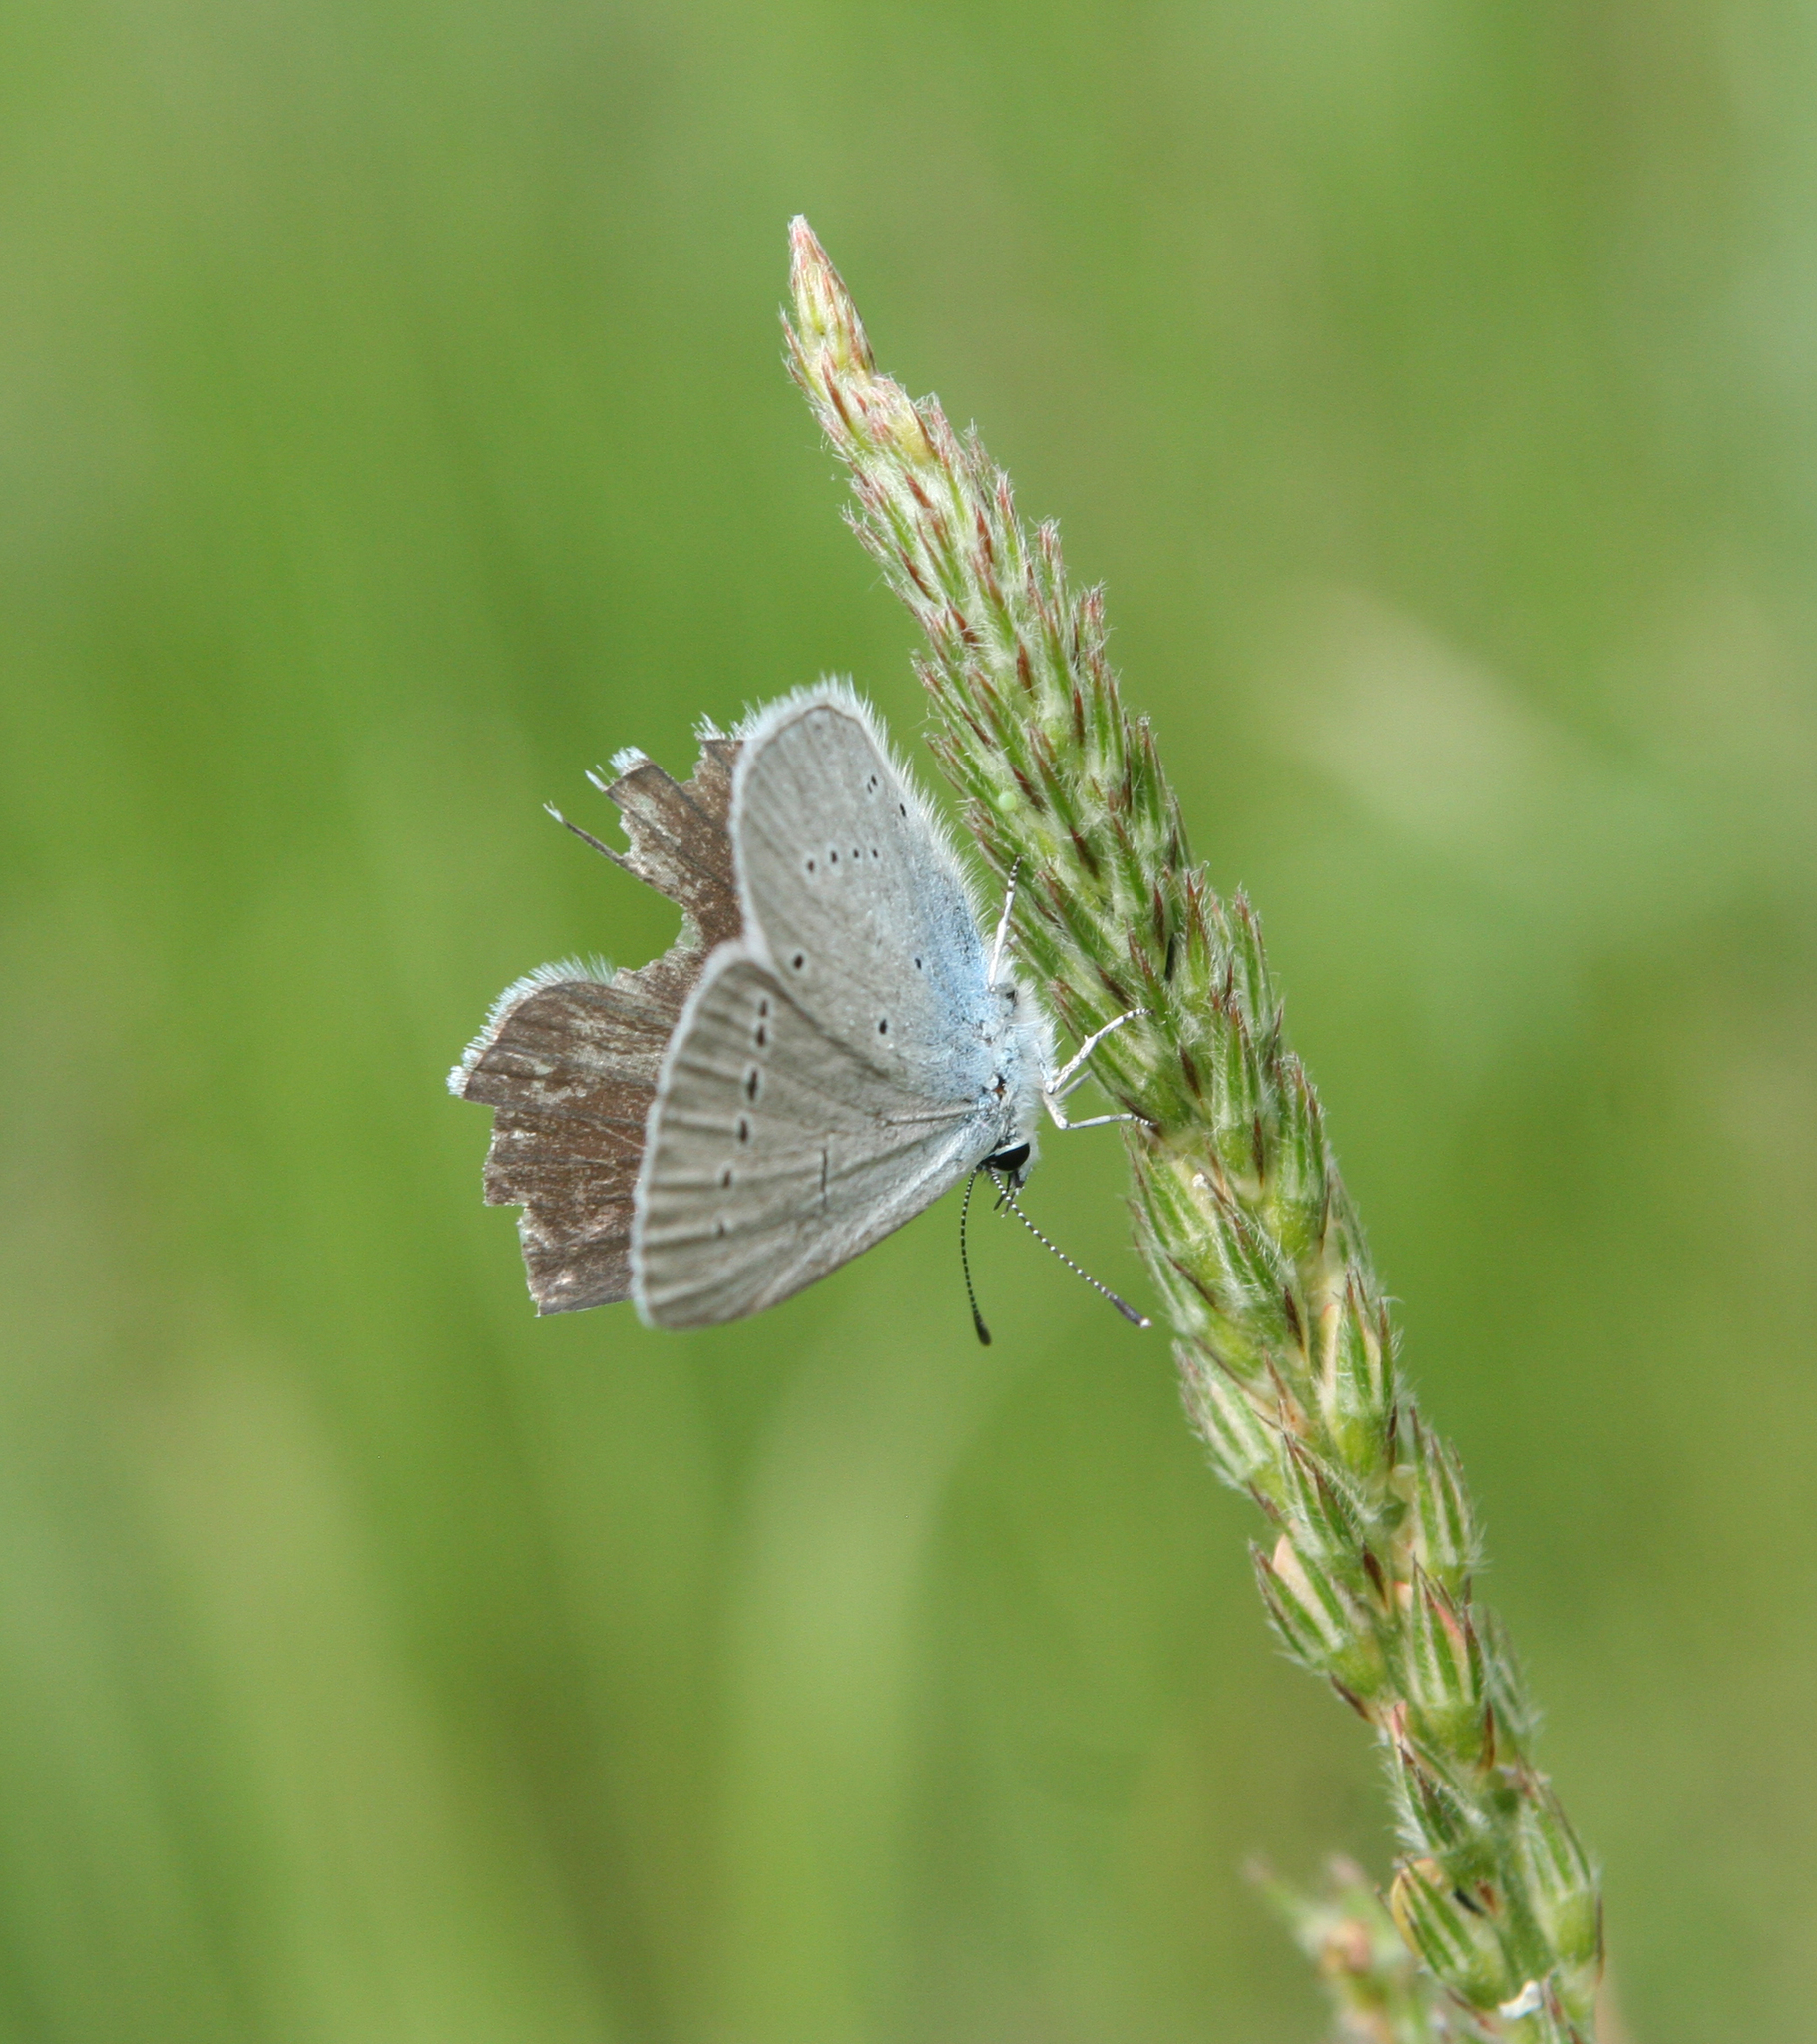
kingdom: Animalia
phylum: Arthropoda
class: Insecta
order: Lepidoptera
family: Lycaenidae
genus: Everes
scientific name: Everes sebrus
